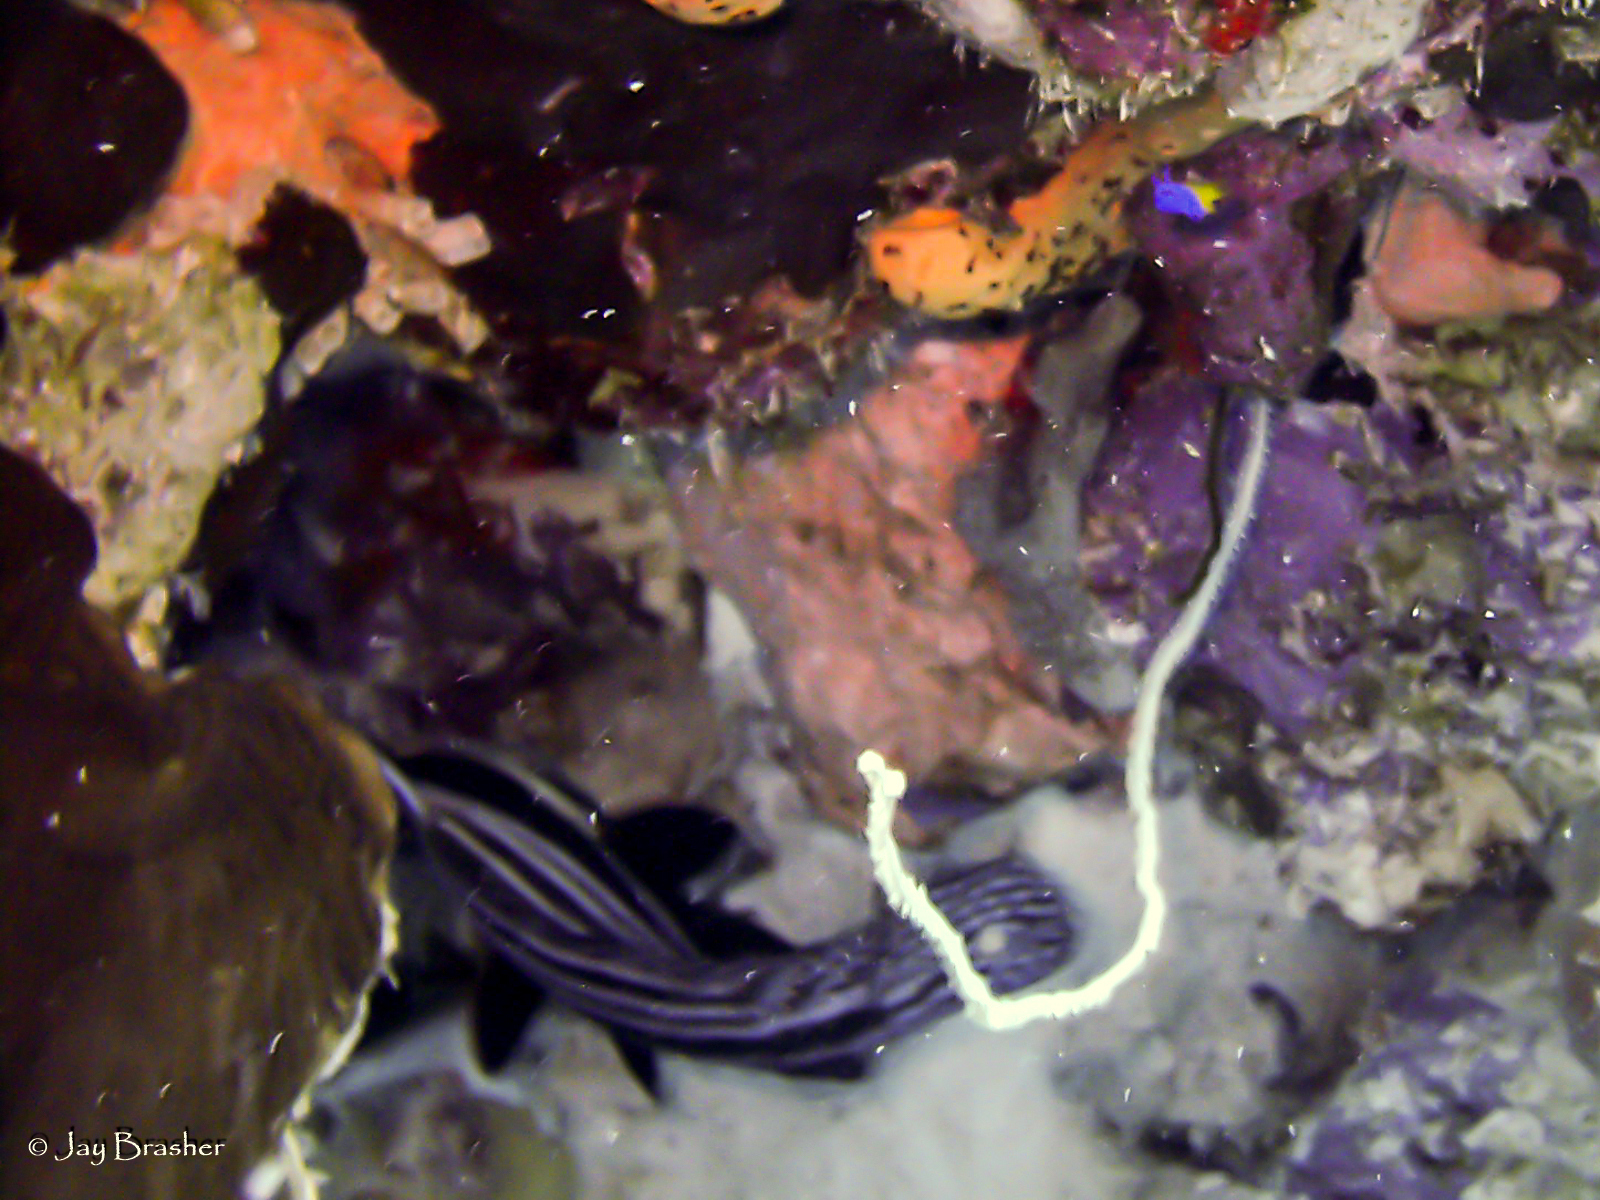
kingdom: Animalia
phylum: Chordata
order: Perciformes
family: Sciaenidae
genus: Equetus
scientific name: Equetus punctatus
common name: Spotted drum
